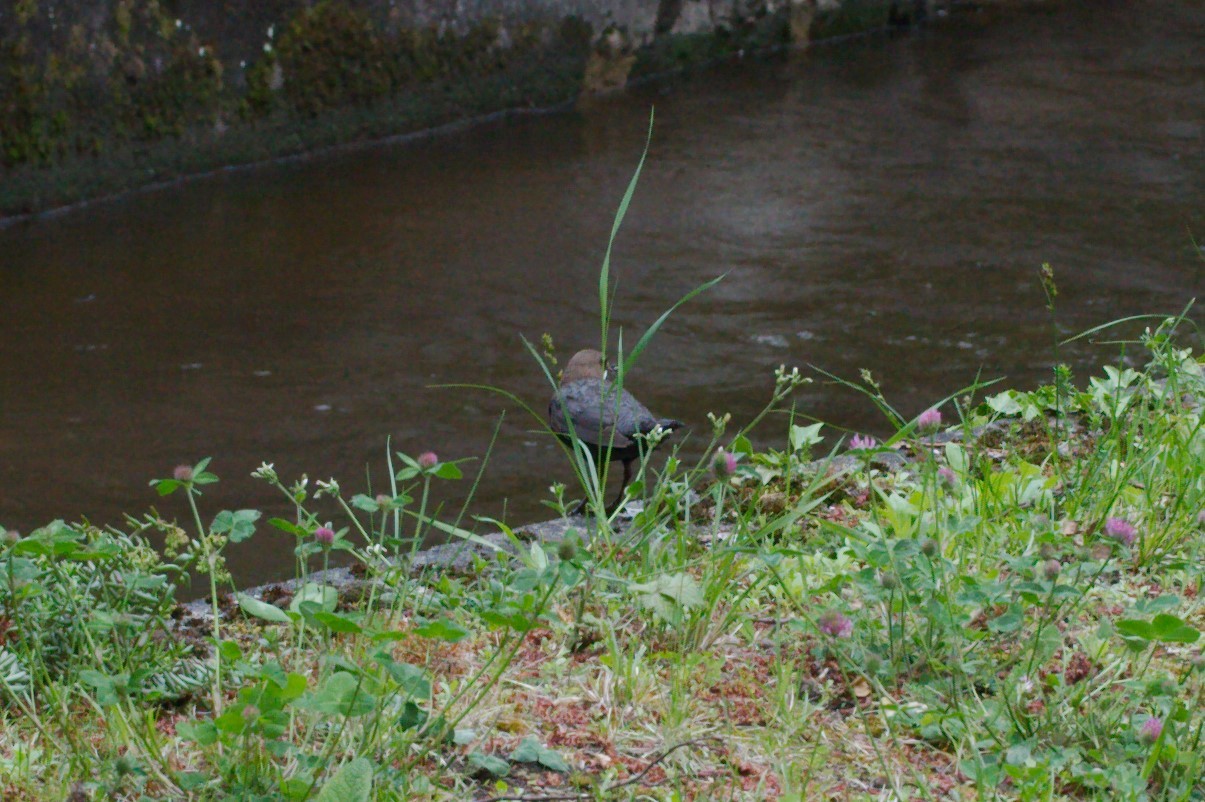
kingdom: Animalia
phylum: Chordata
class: Aves
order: Passeriformes
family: Cinclidae
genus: Cinclus
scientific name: Cinclus cinclus
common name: White-throated dipper
